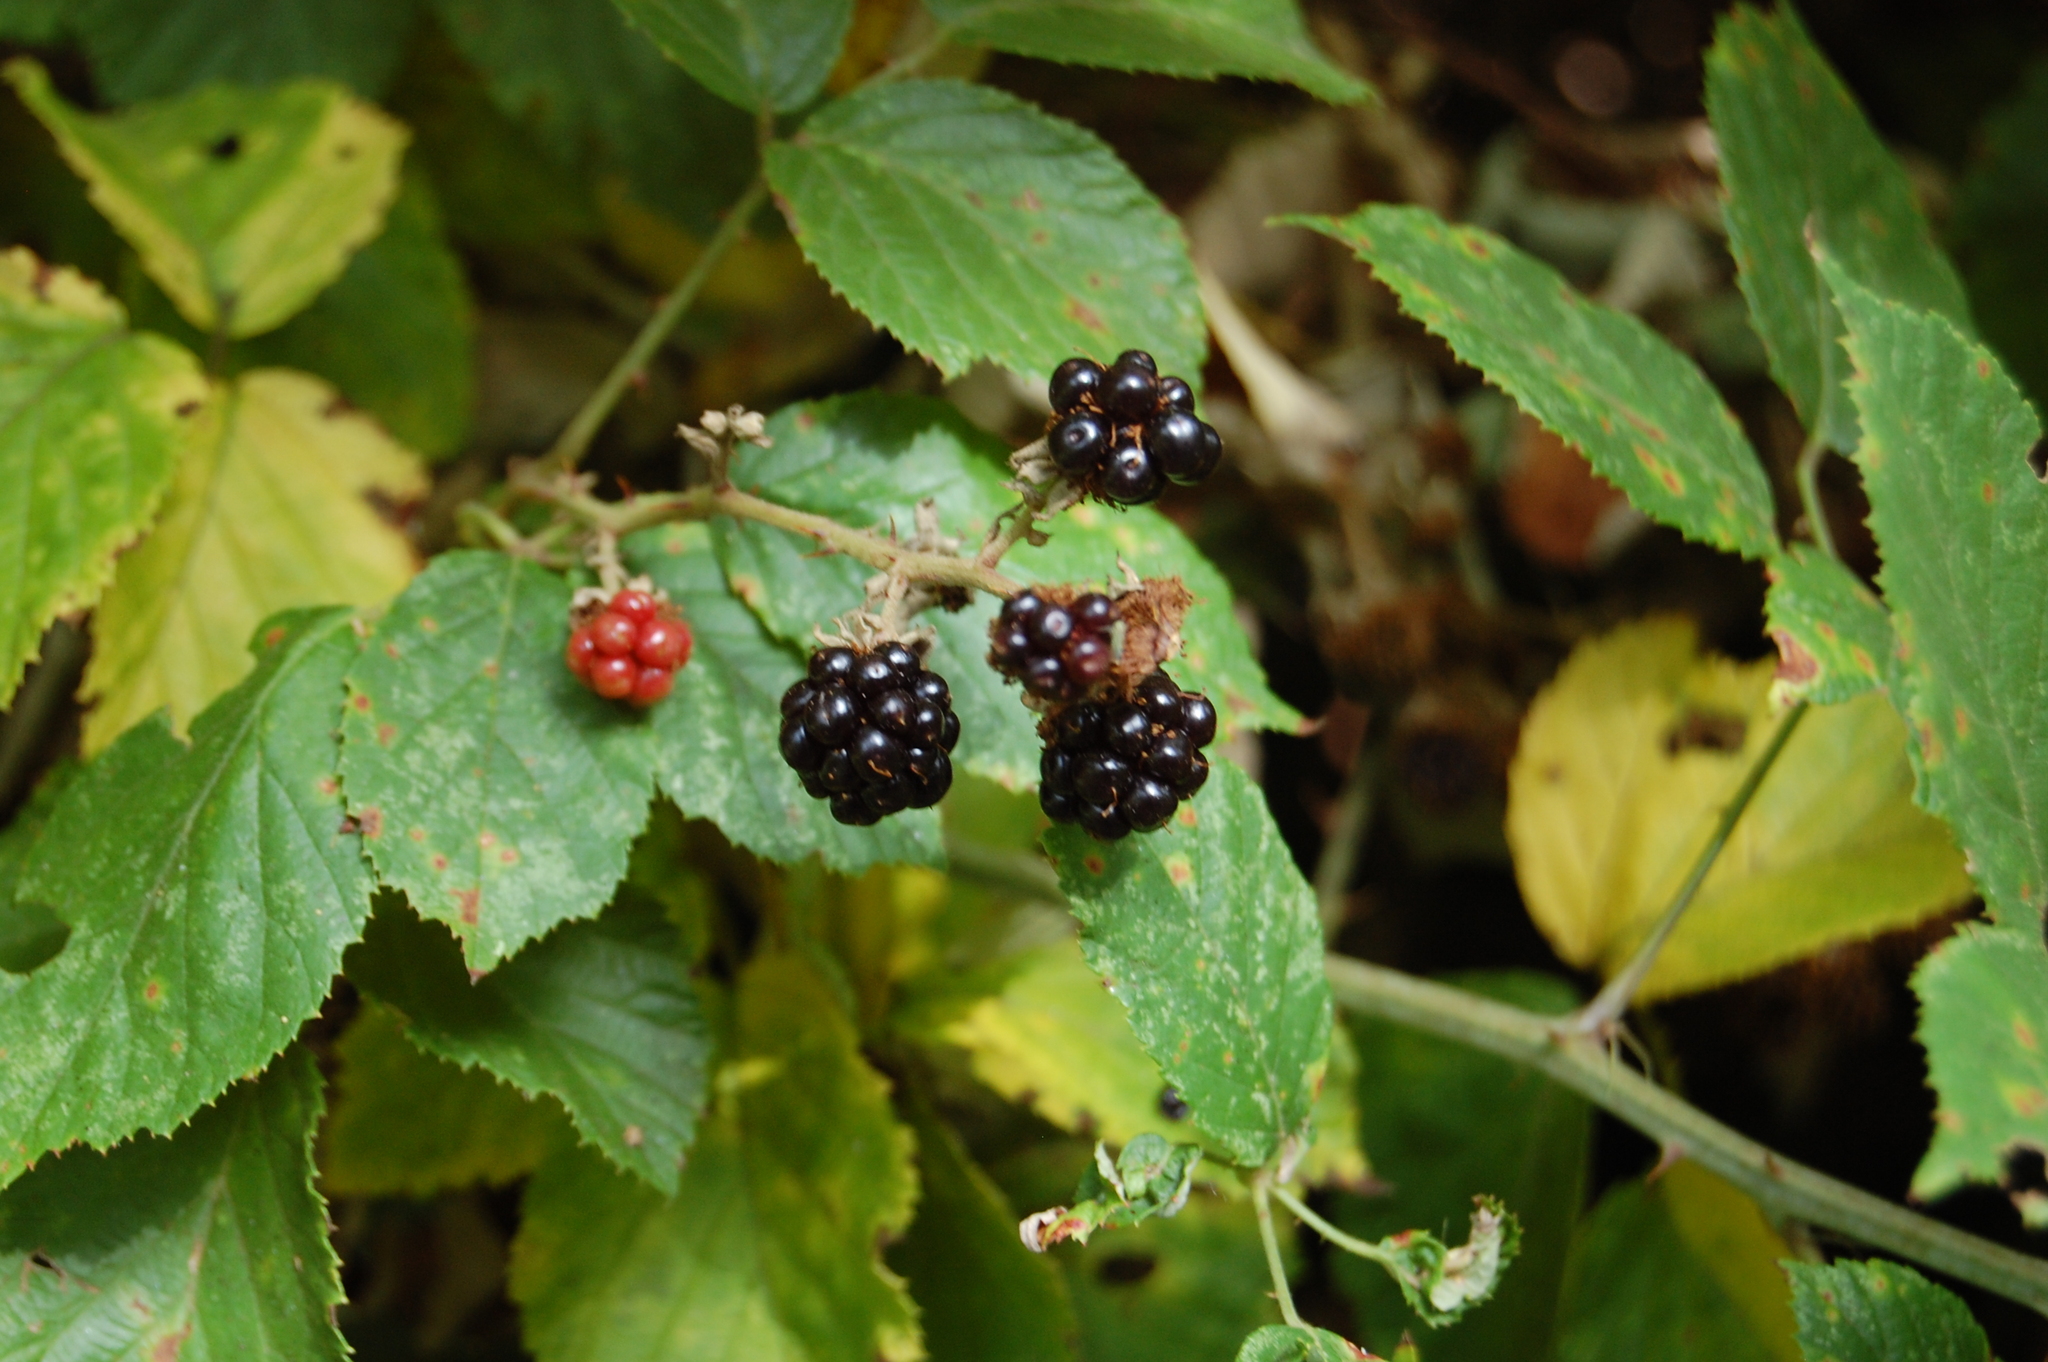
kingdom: Plantae
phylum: Tracheophyta
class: Magnoliopsida
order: Rosales
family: Rosaceae
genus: Rubus
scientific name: Rubus ulmifolius
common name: Elmleaf blackberry
